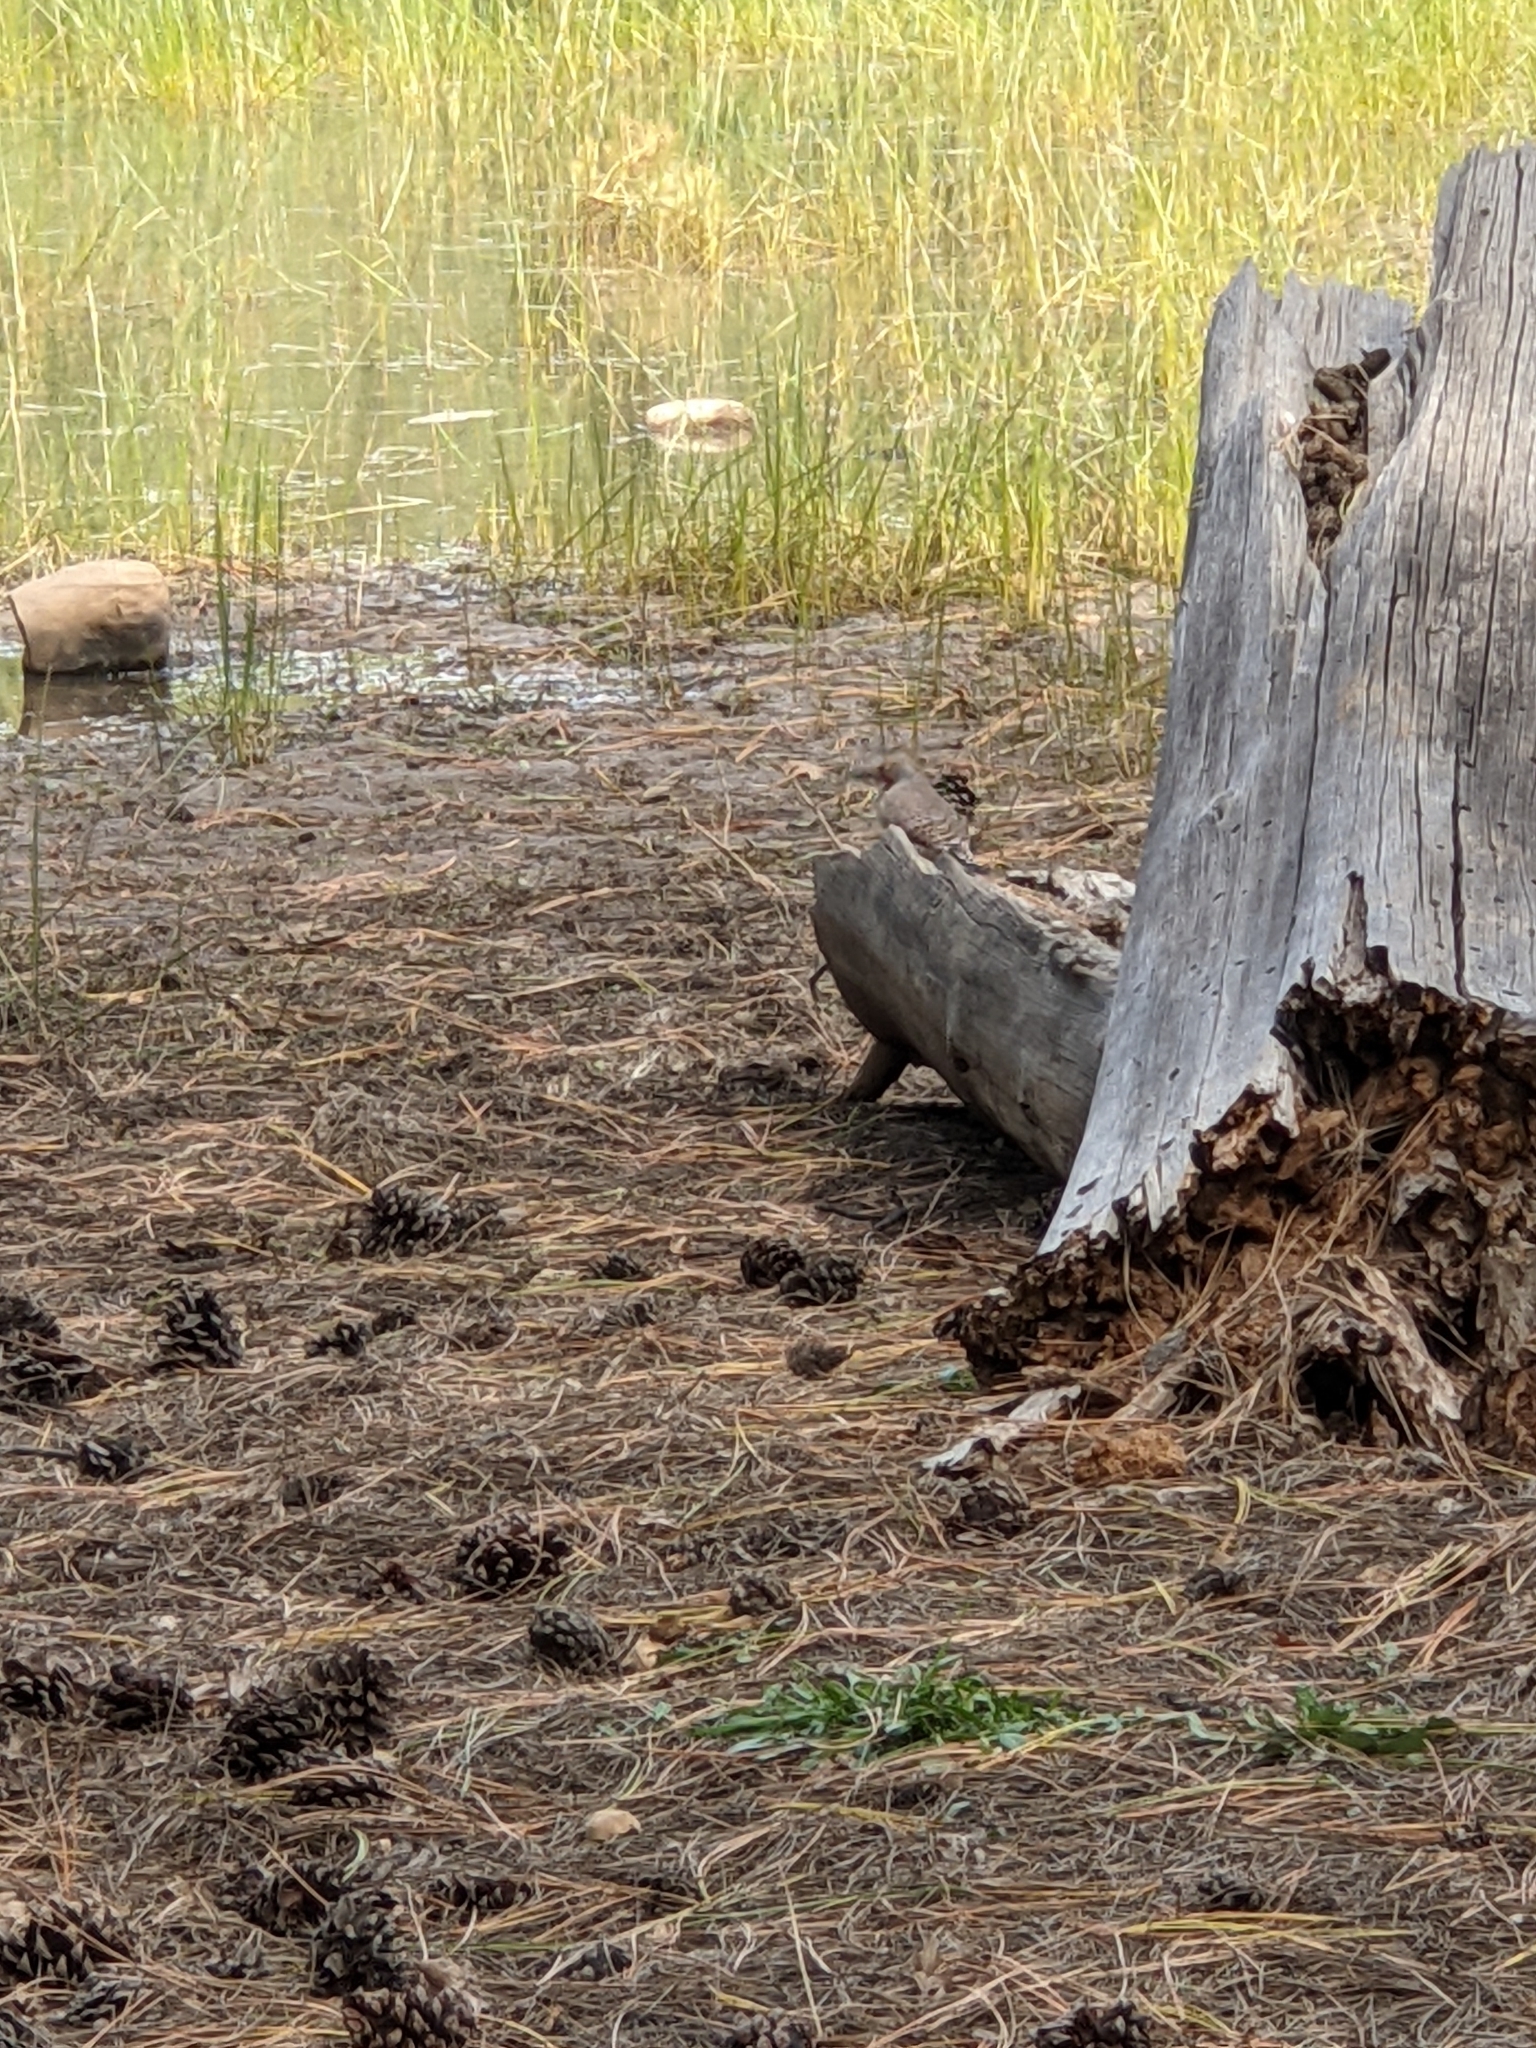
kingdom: Animalia
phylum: Chordata
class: Aves
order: Piciformes
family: Picidae
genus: Colaptes
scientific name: Colaptes auratus
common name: Northern flicker
